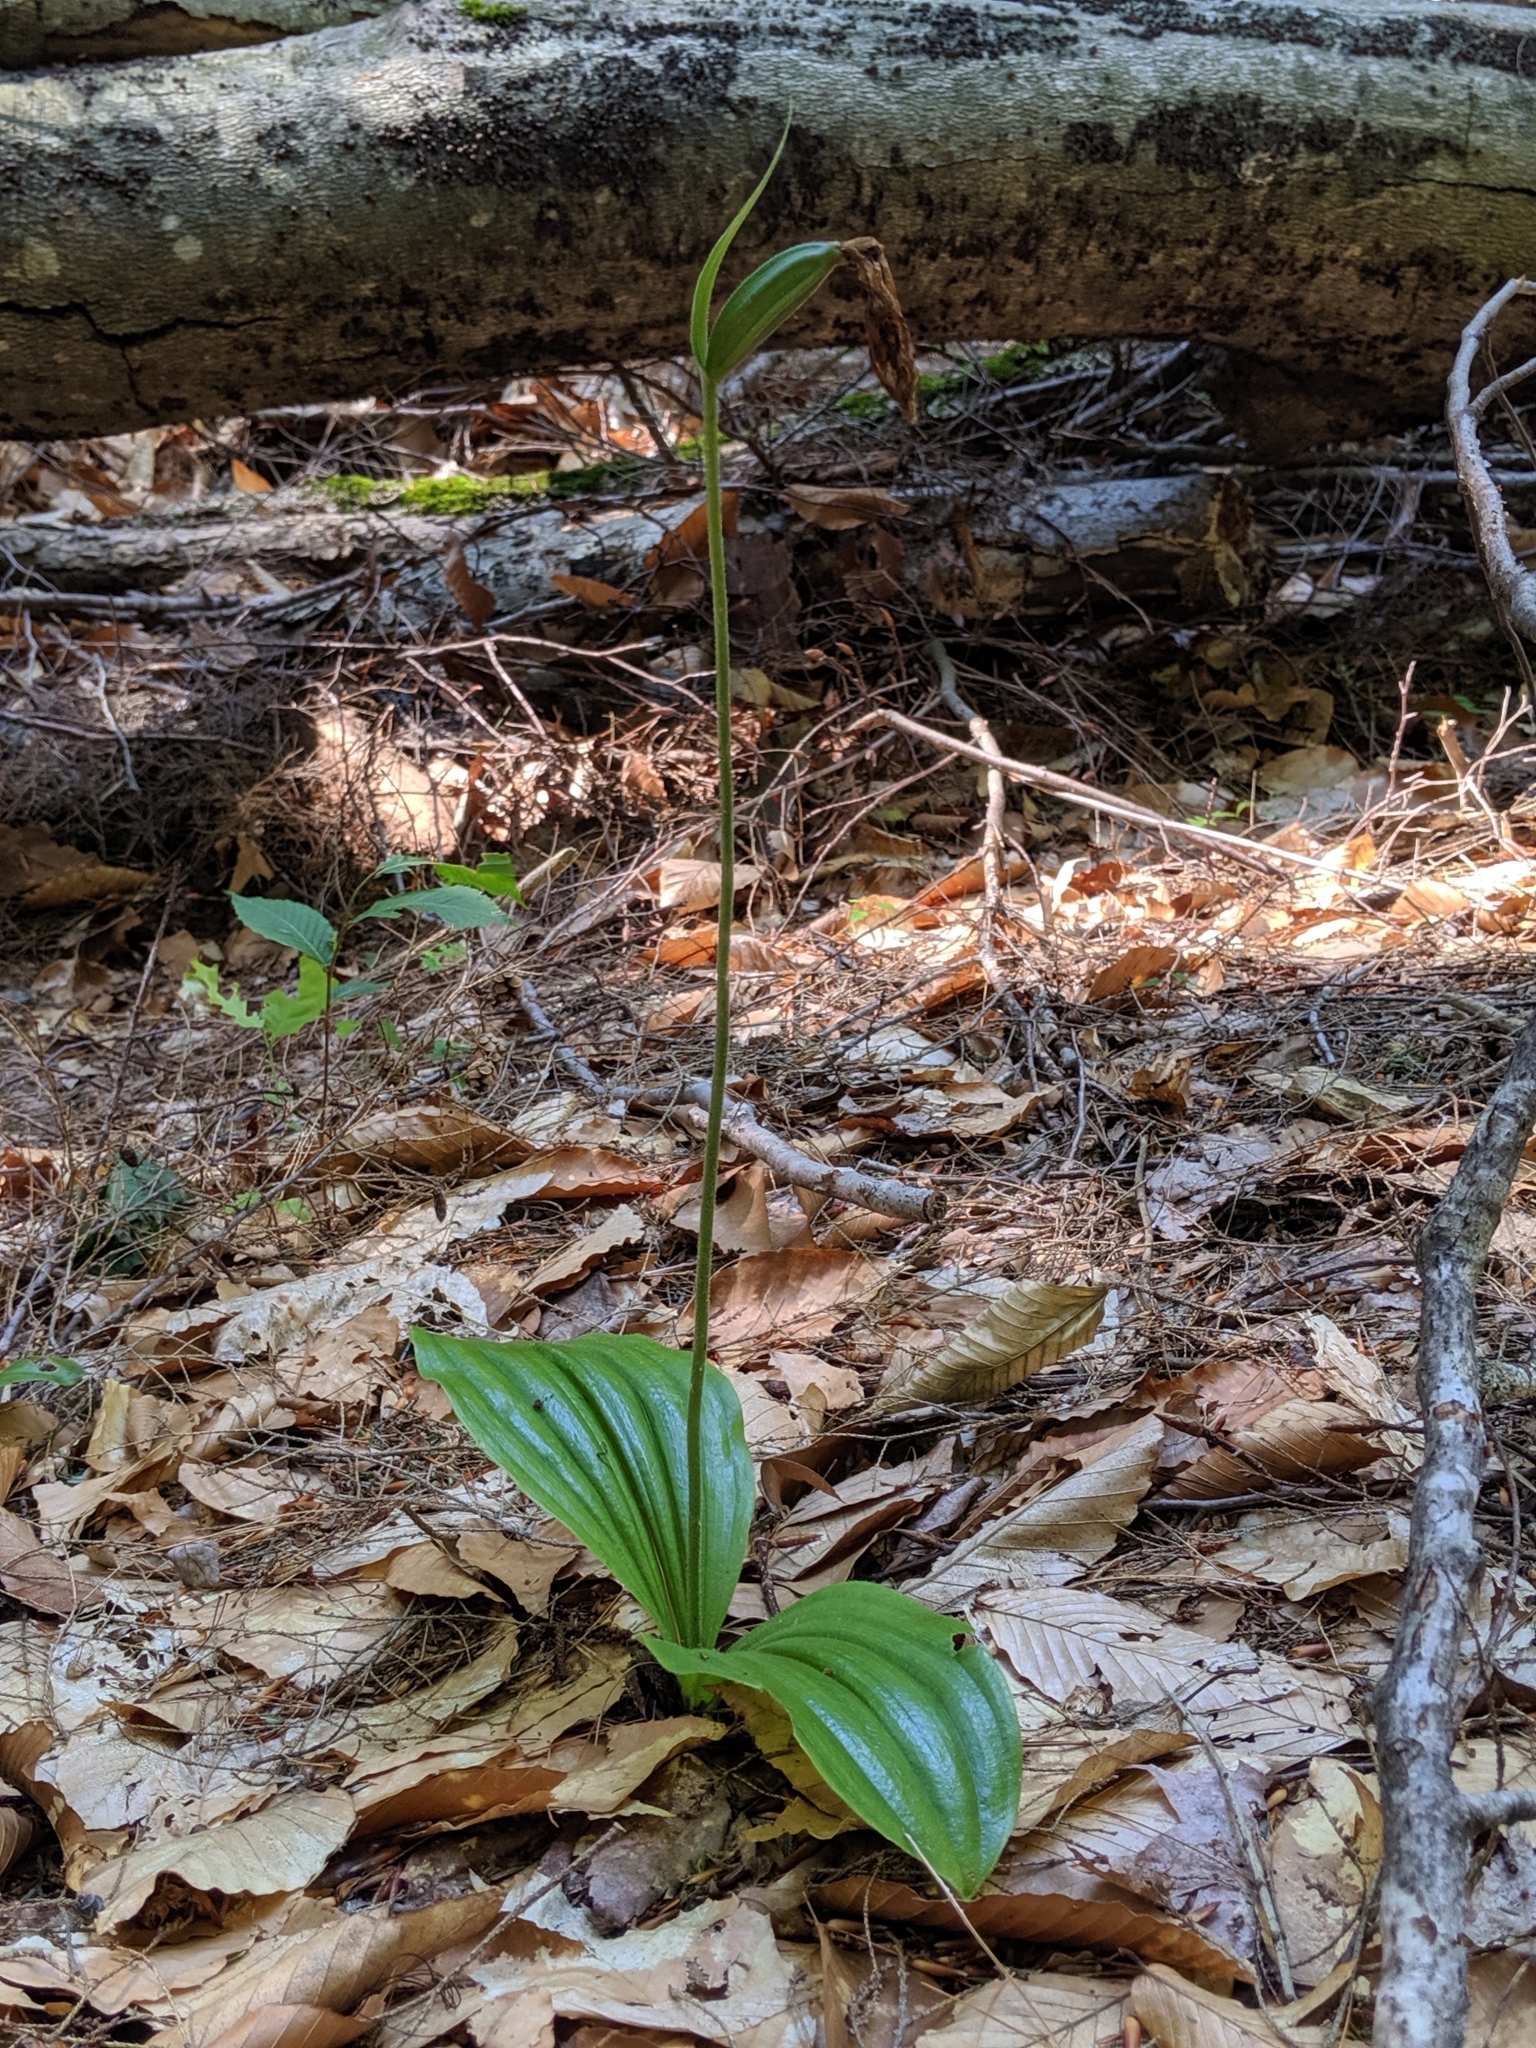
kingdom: Plantae
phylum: Tracheophyta
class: Liliopsida
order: Asparagales
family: Orchidaceae
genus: Cypripedium
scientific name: Cypripedium acaule
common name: Pink lady's-slipper
